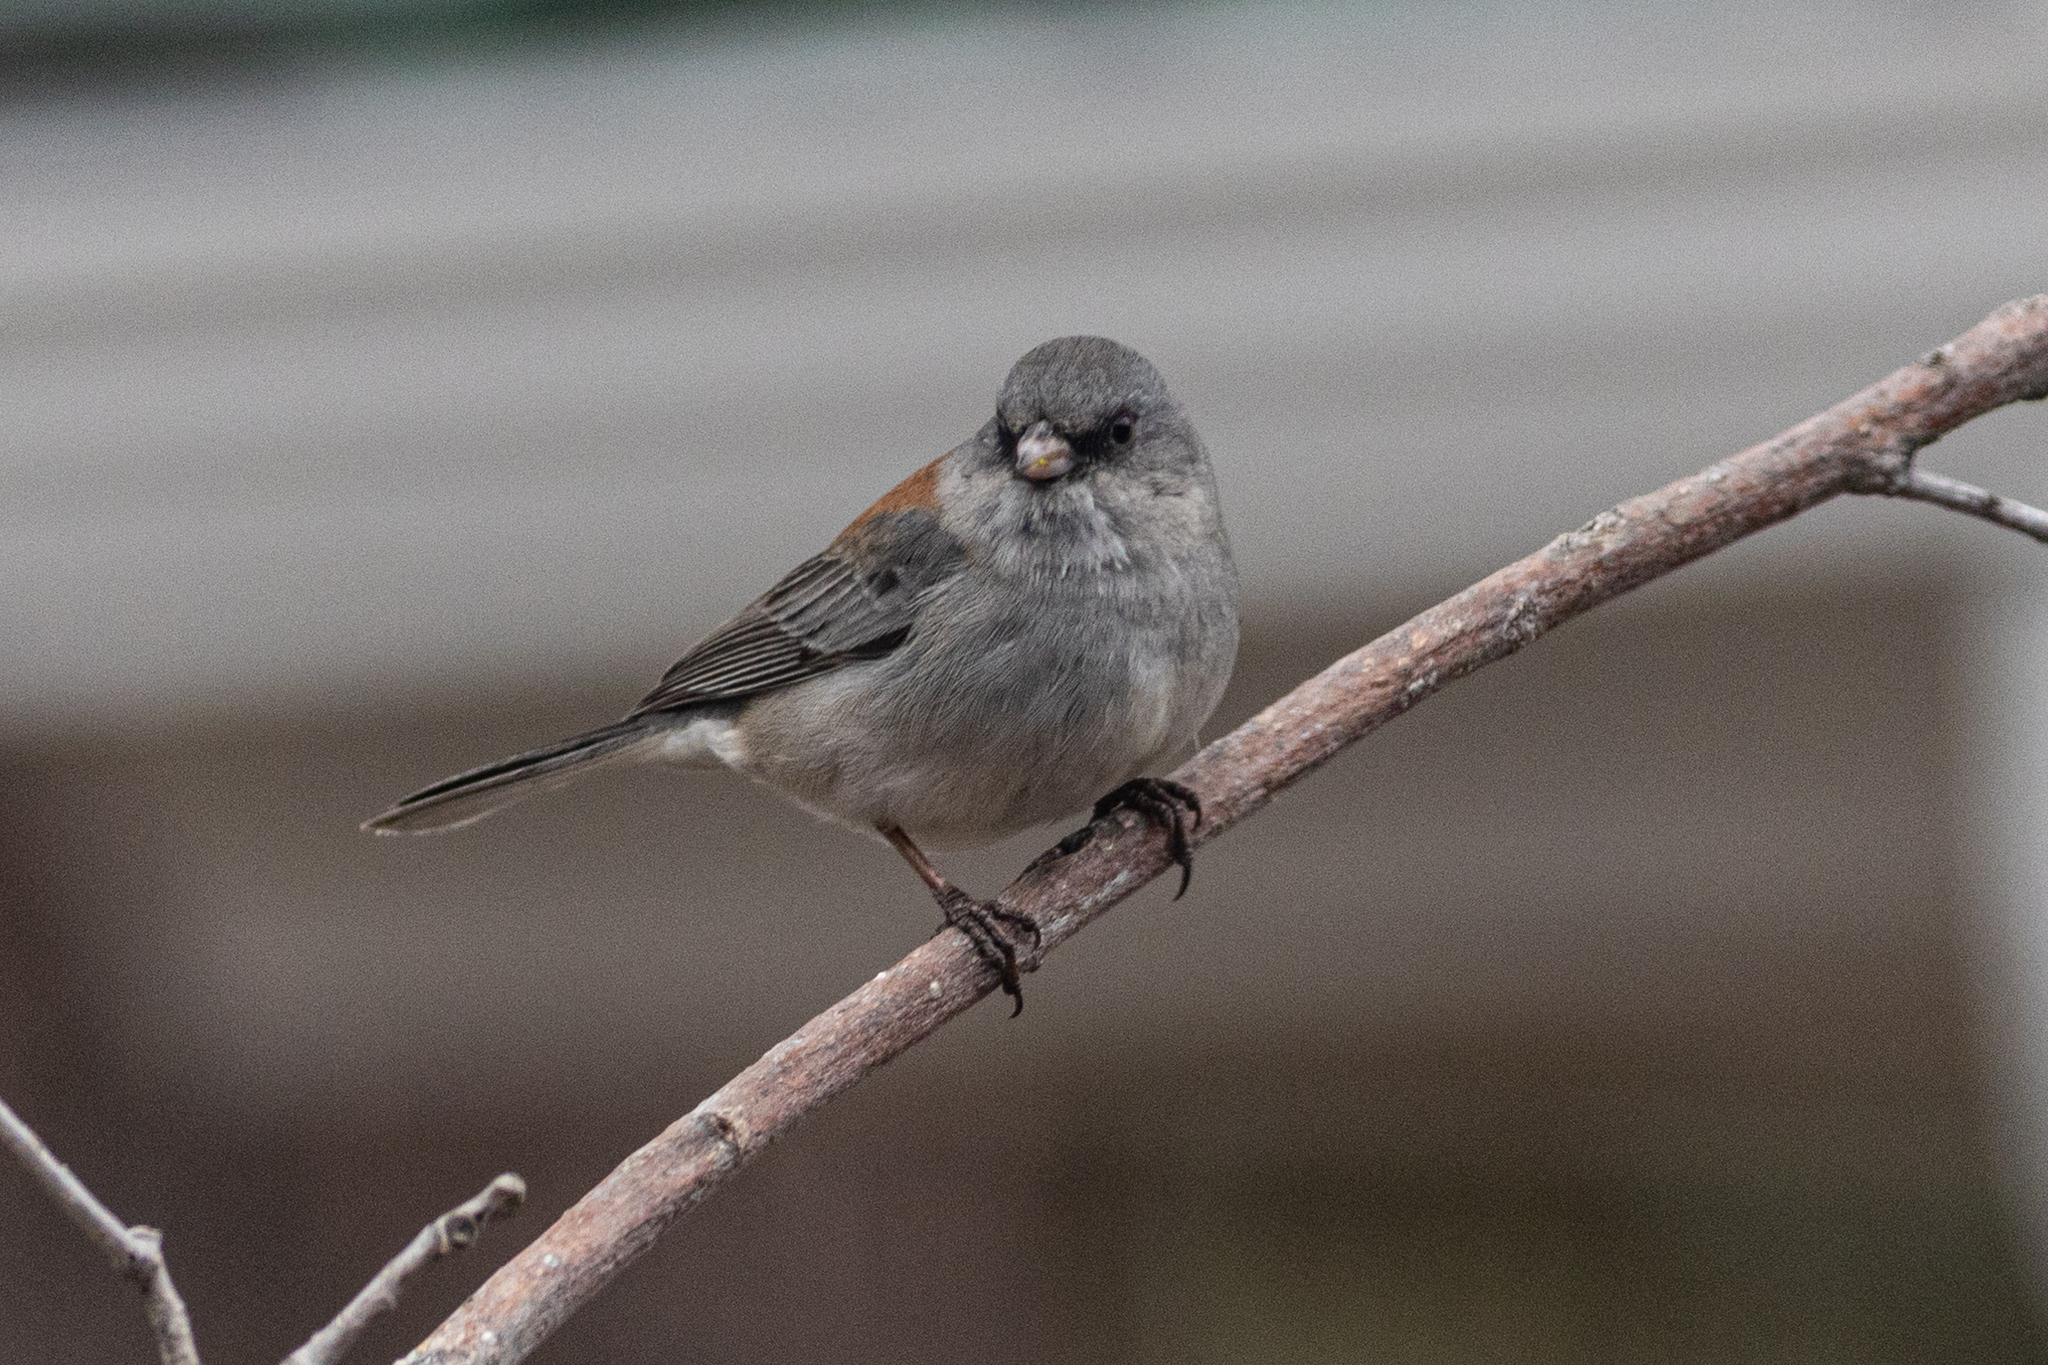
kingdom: Animalia
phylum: Chordata
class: Aves
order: Passeriformes
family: Passerellidae
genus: Junco
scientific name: Junco hyemalis
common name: Dark-eyed junco
